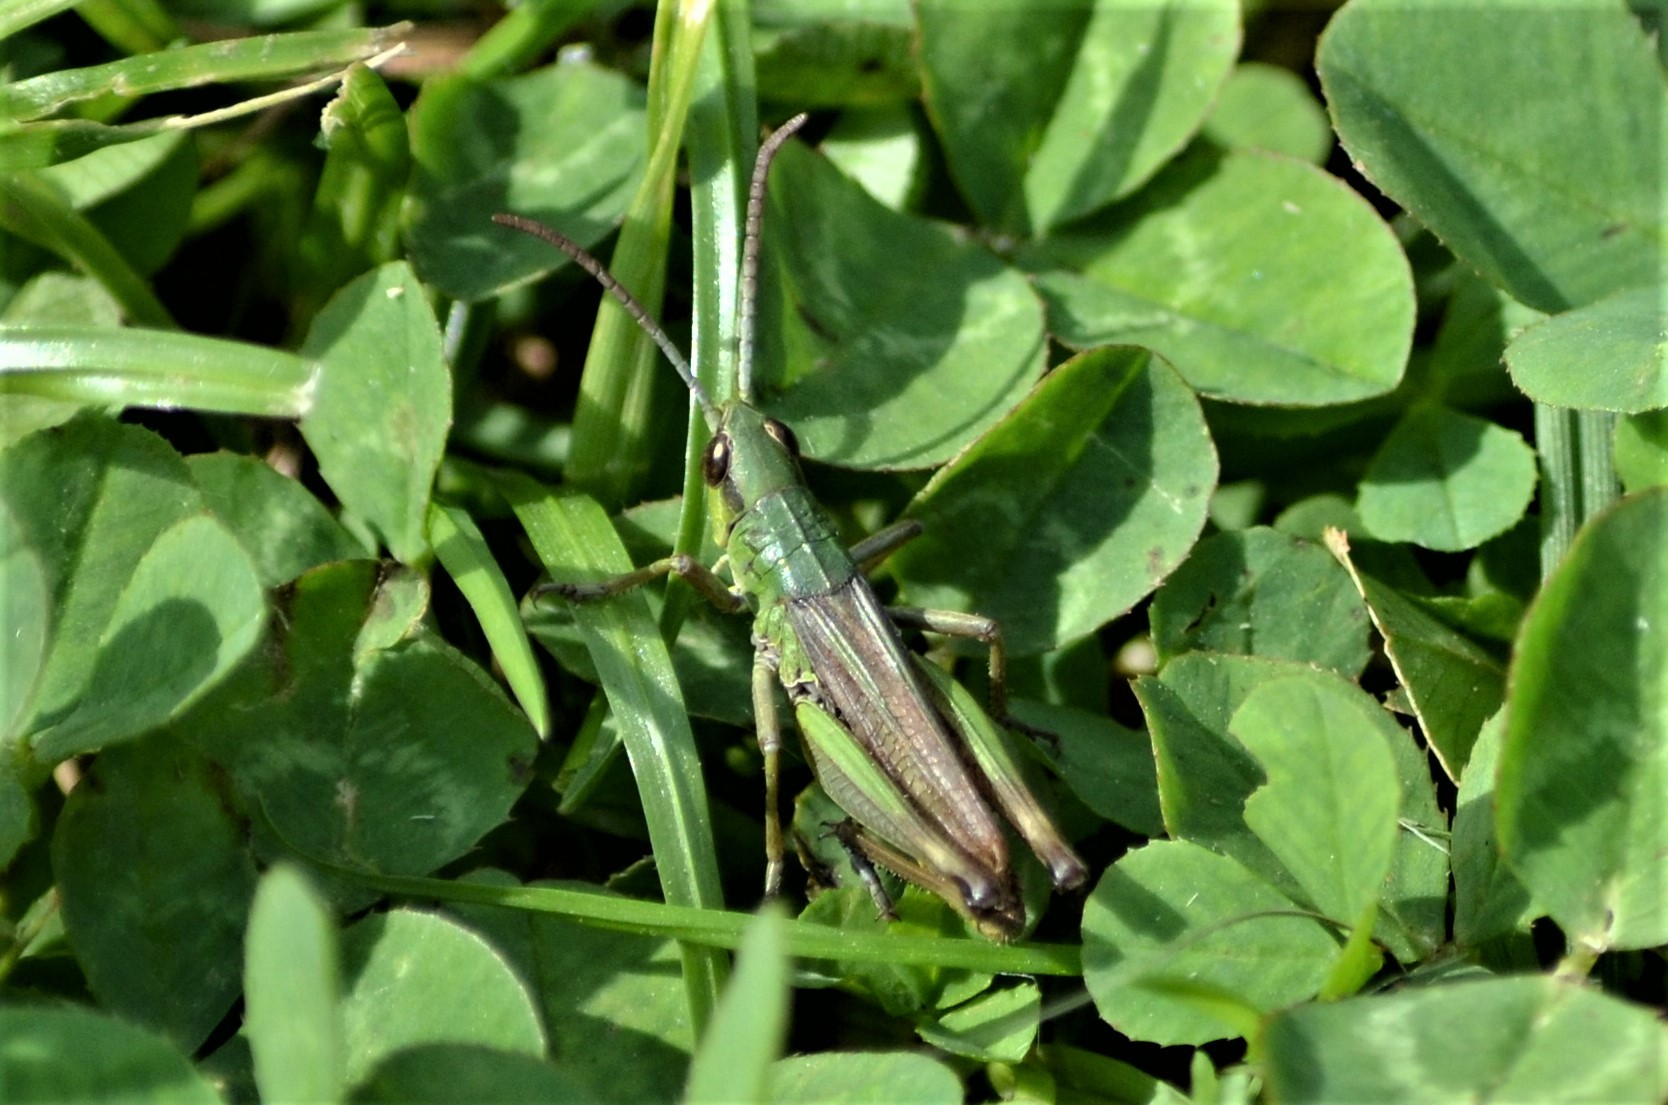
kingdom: Animalia
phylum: Arthropoda
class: Insecta
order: Orthoptera
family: Acrididae
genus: Pseudochorthippus
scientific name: Pseudochorthippus parallelus
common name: Meadow grasshopper
